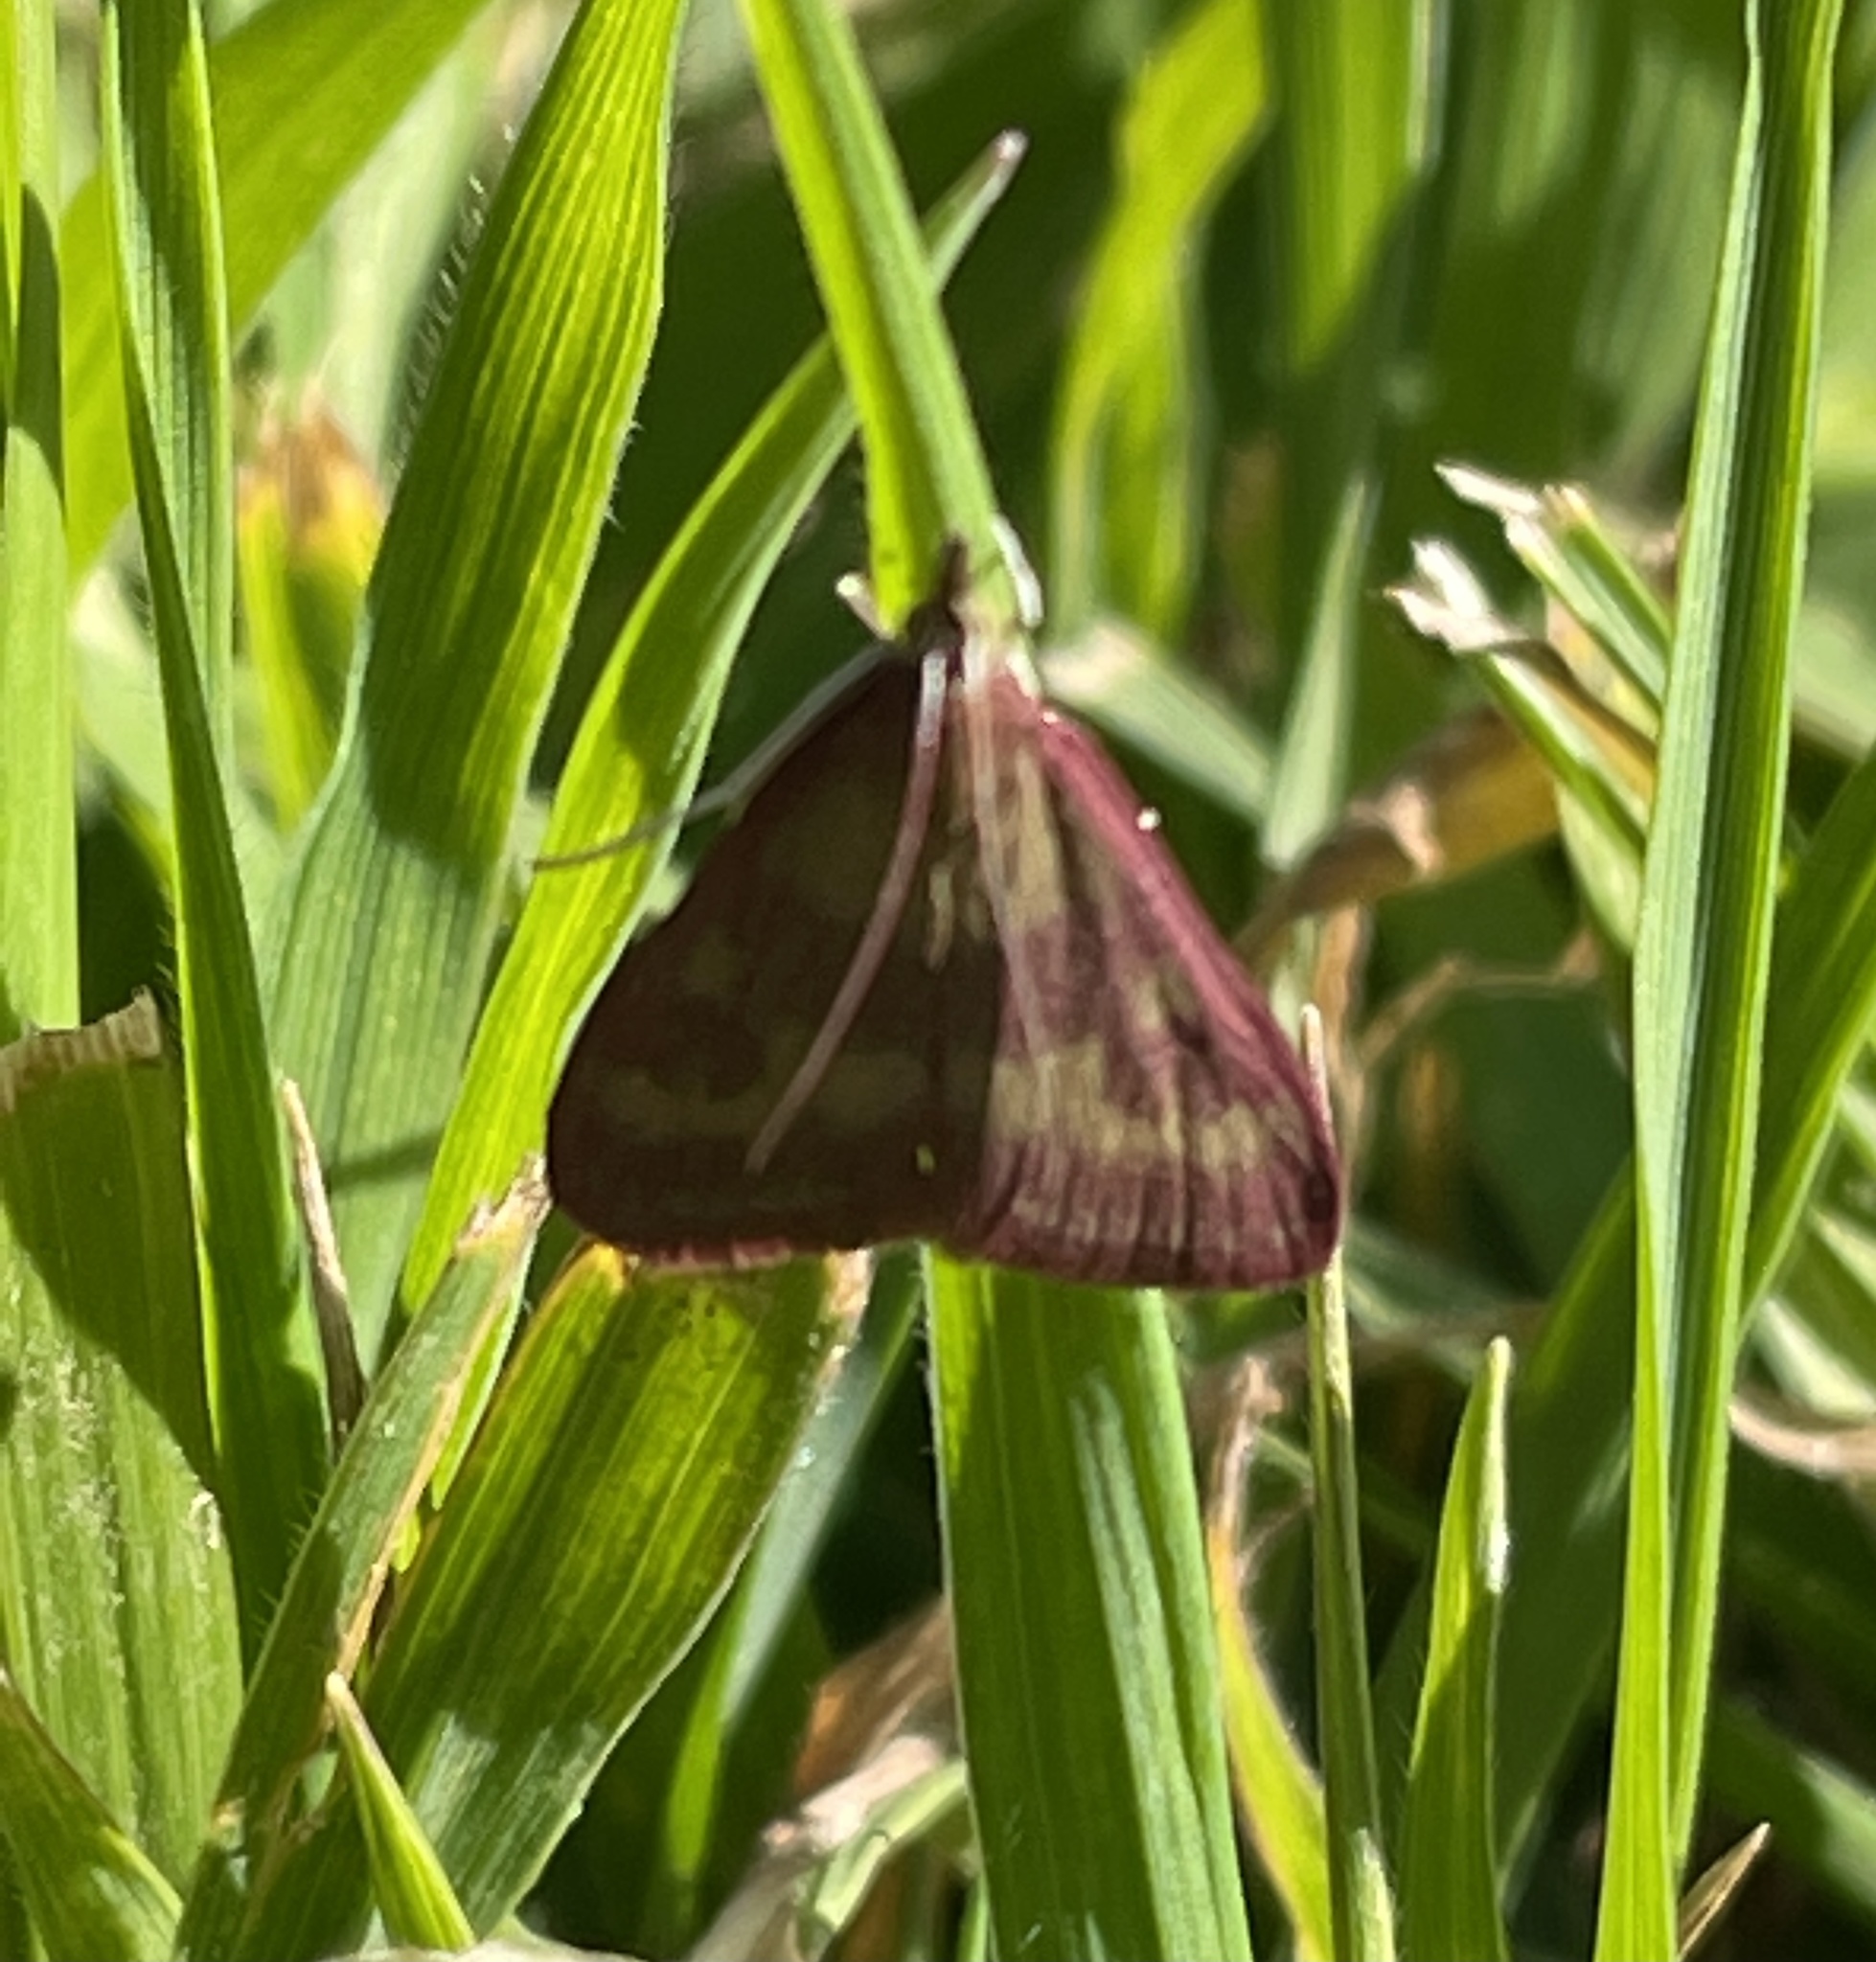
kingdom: Animalia
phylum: Arthropoda
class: Insecta
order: Lepidoptera
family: Crambidae
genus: Pyrausta
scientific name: Pyrausta laticlavia
